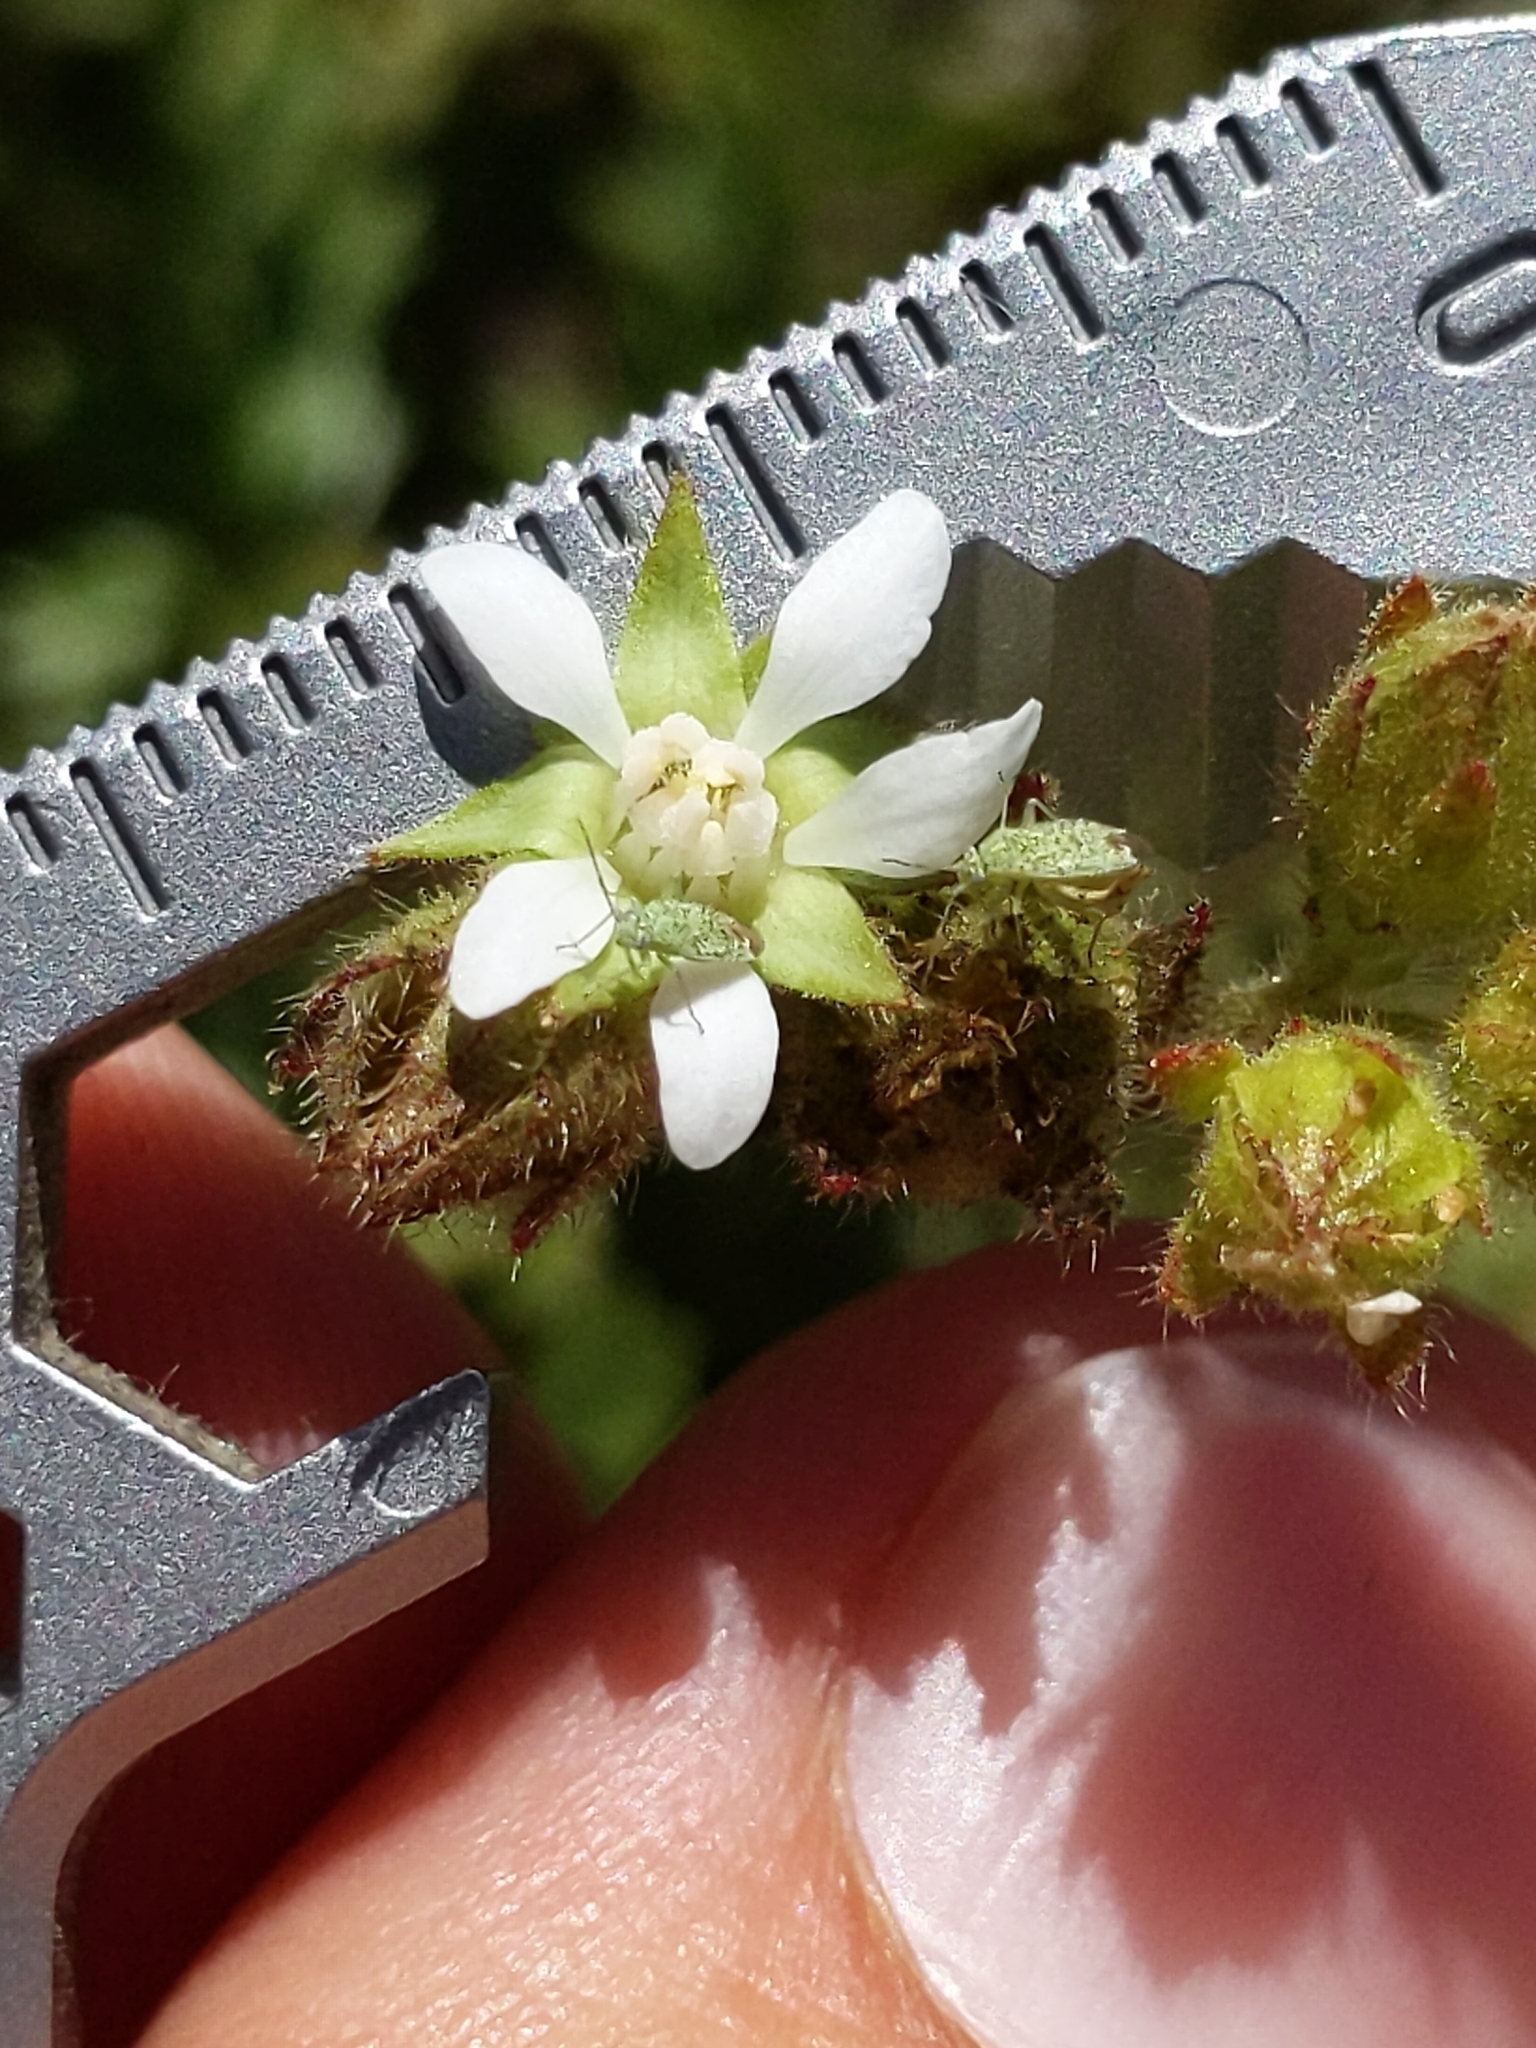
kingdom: Plantae
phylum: Tracheophyta
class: Magnoliopsida
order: Rosales
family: Rosaceae
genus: Potentilla
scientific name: Potentilla
